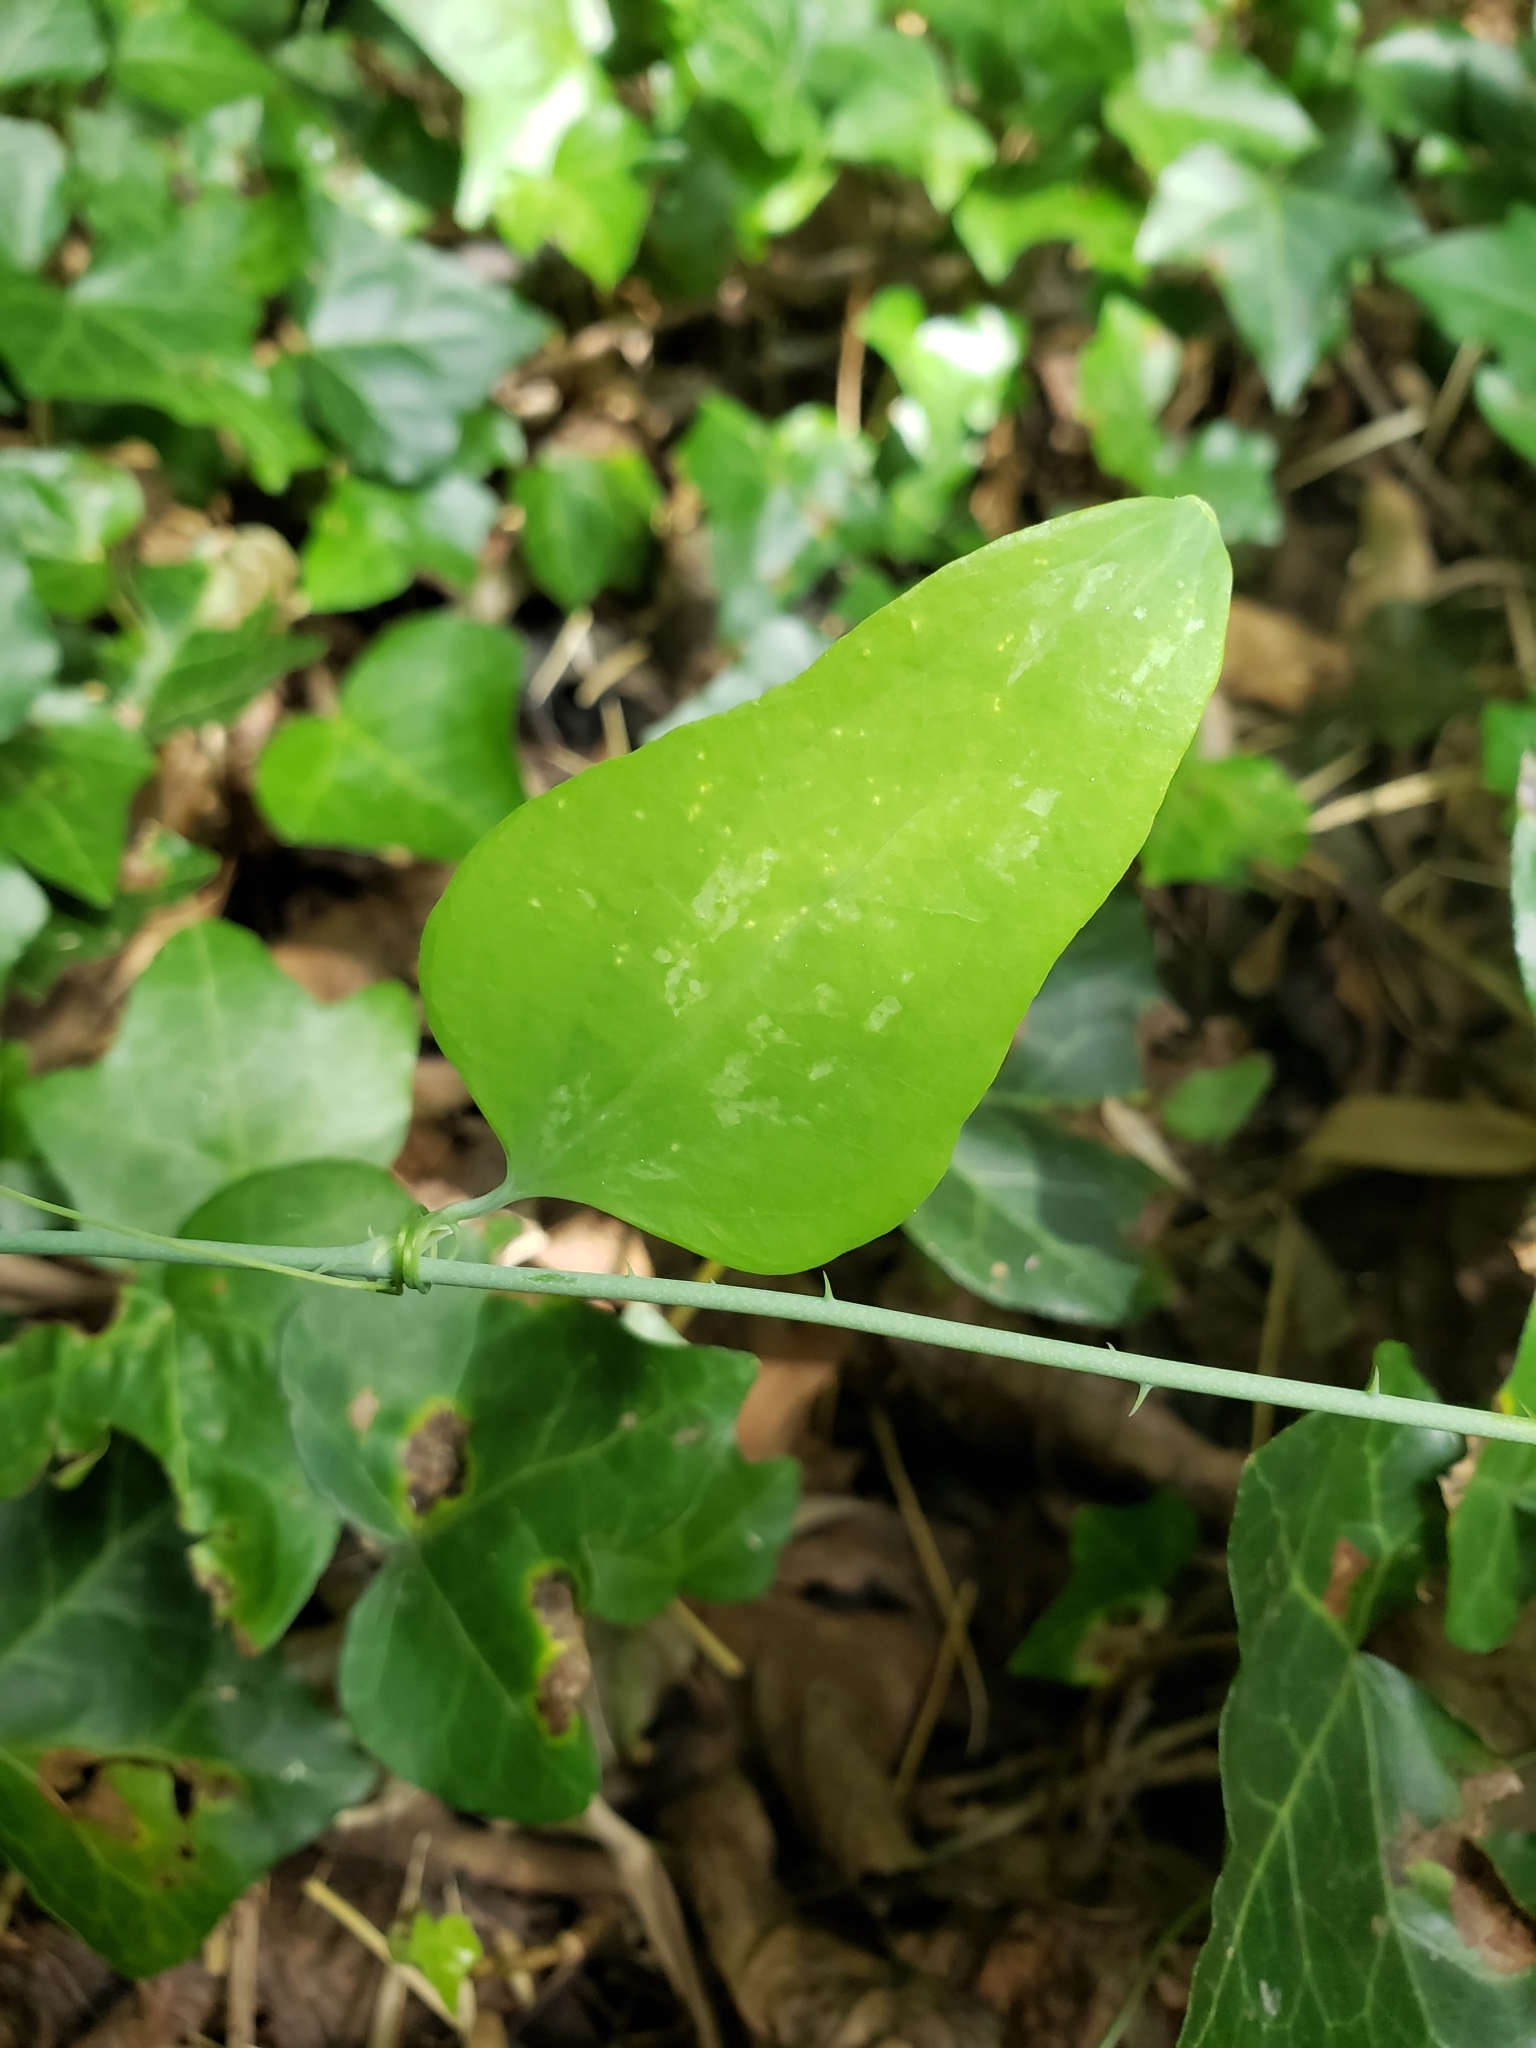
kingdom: Plantae
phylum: Tracheophyta
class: Liliopsida
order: Liliales
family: Smilacaceae
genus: Smilax
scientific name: Smilax glauca
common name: Cat greenbrier
